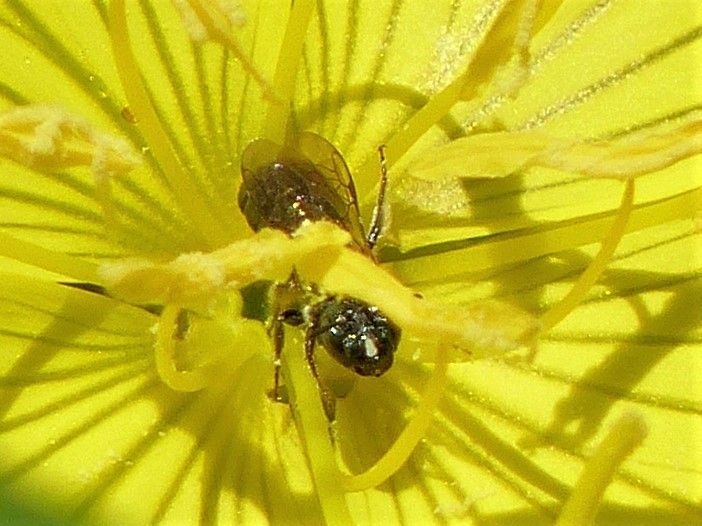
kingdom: Animalia
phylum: Arthropoda
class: Insecta
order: Hymenoptera
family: Apidae
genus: Zadontomerus
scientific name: Zadontomerus
